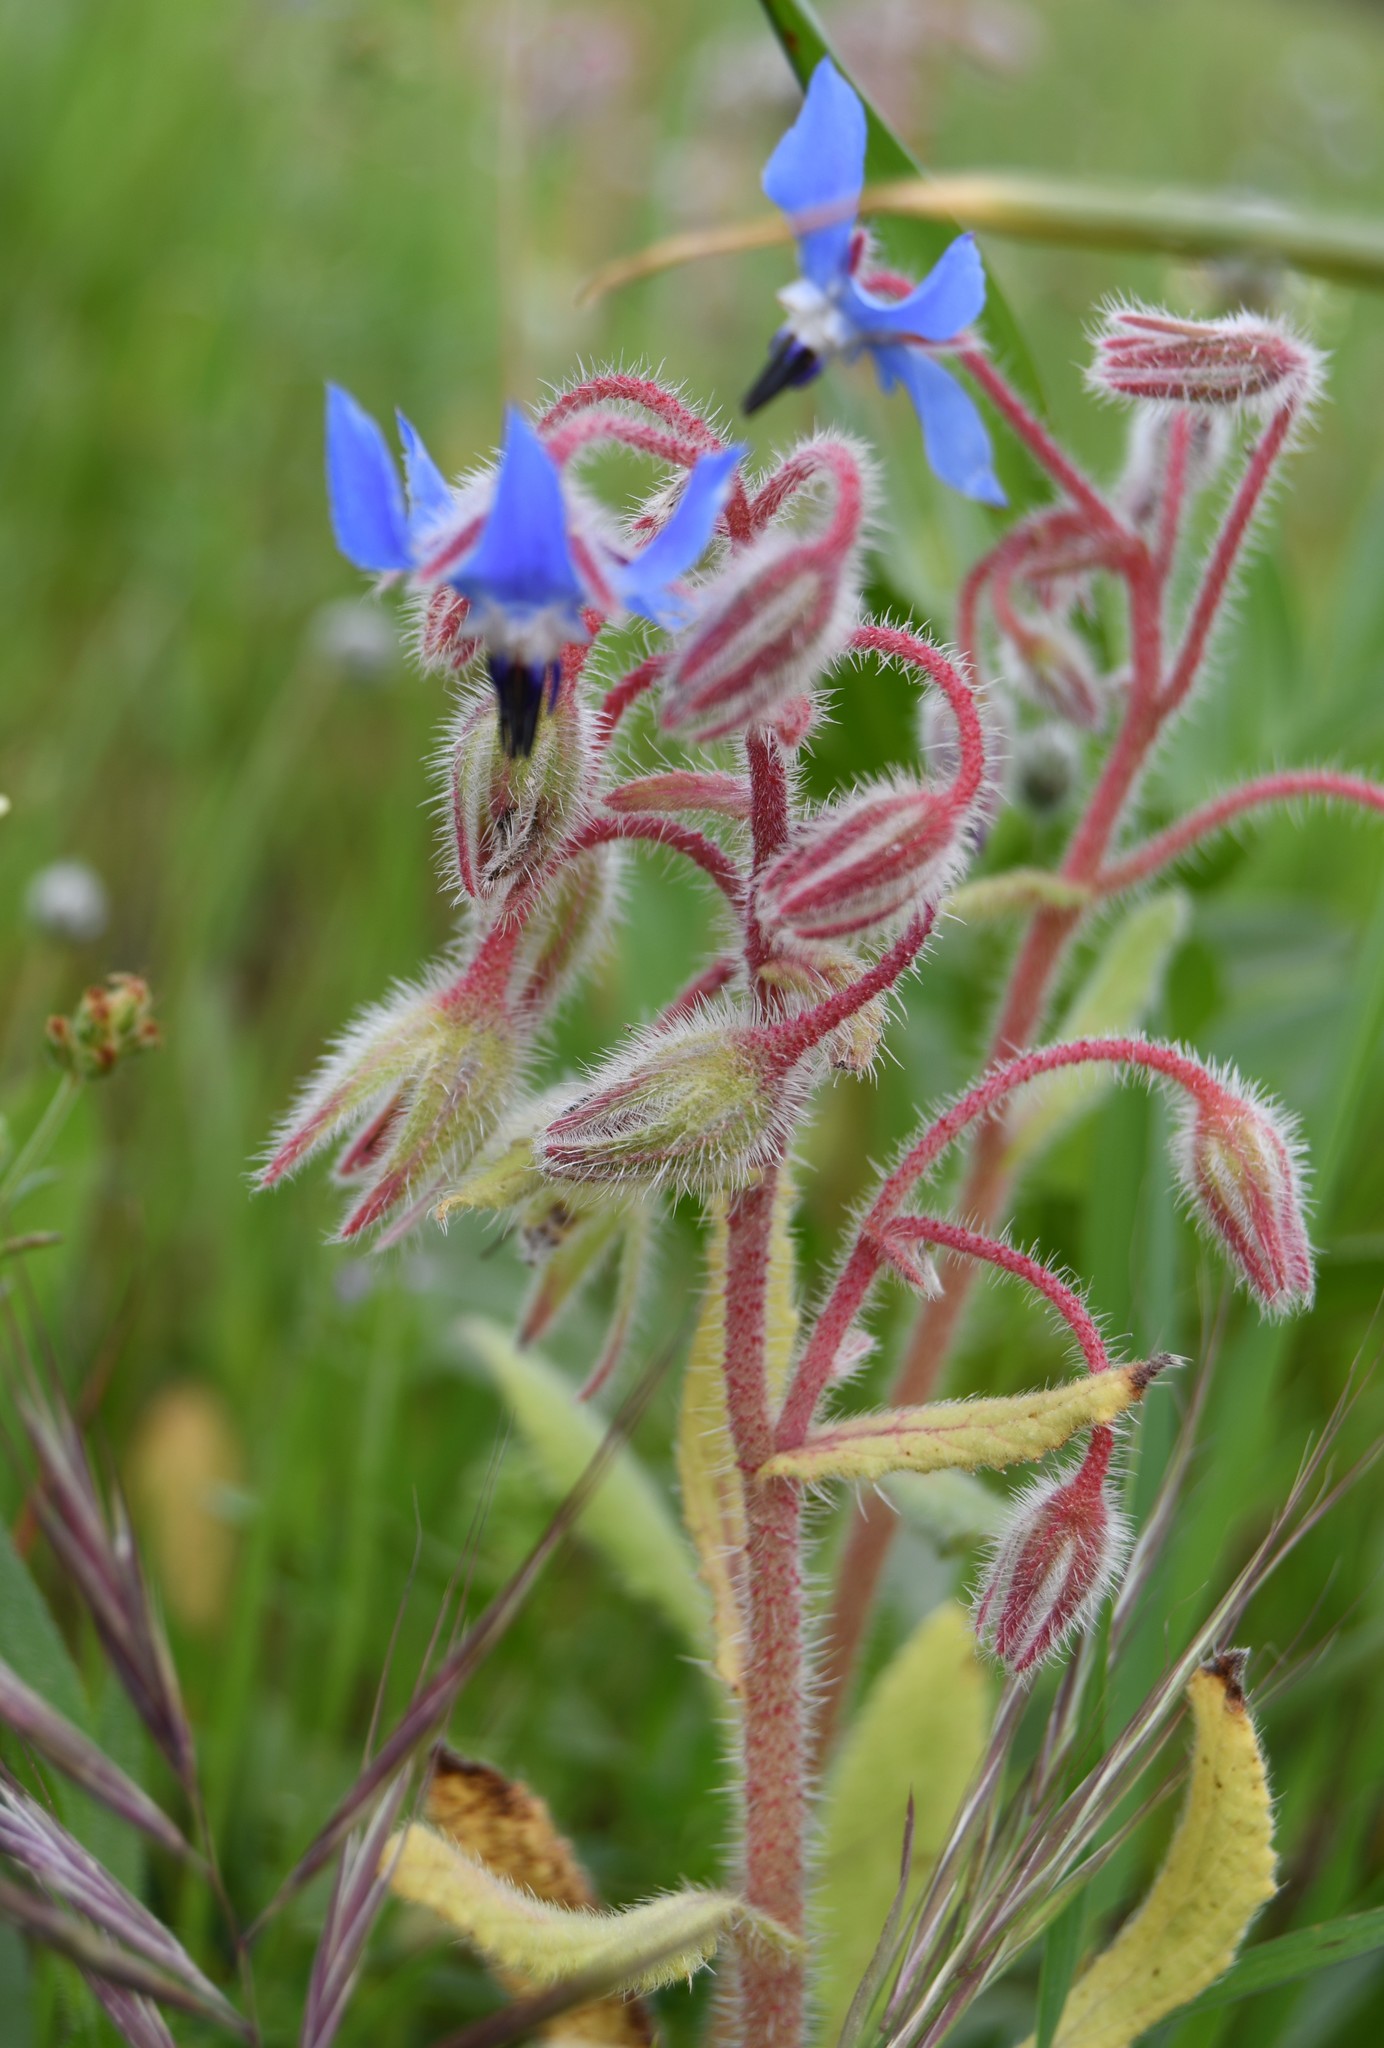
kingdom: Plantae
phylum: Tracheophyta
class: Magnoliopsida
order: Boraginales
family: Boraginaceae
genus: Borago
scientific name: Borago officinalis
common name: Borage
